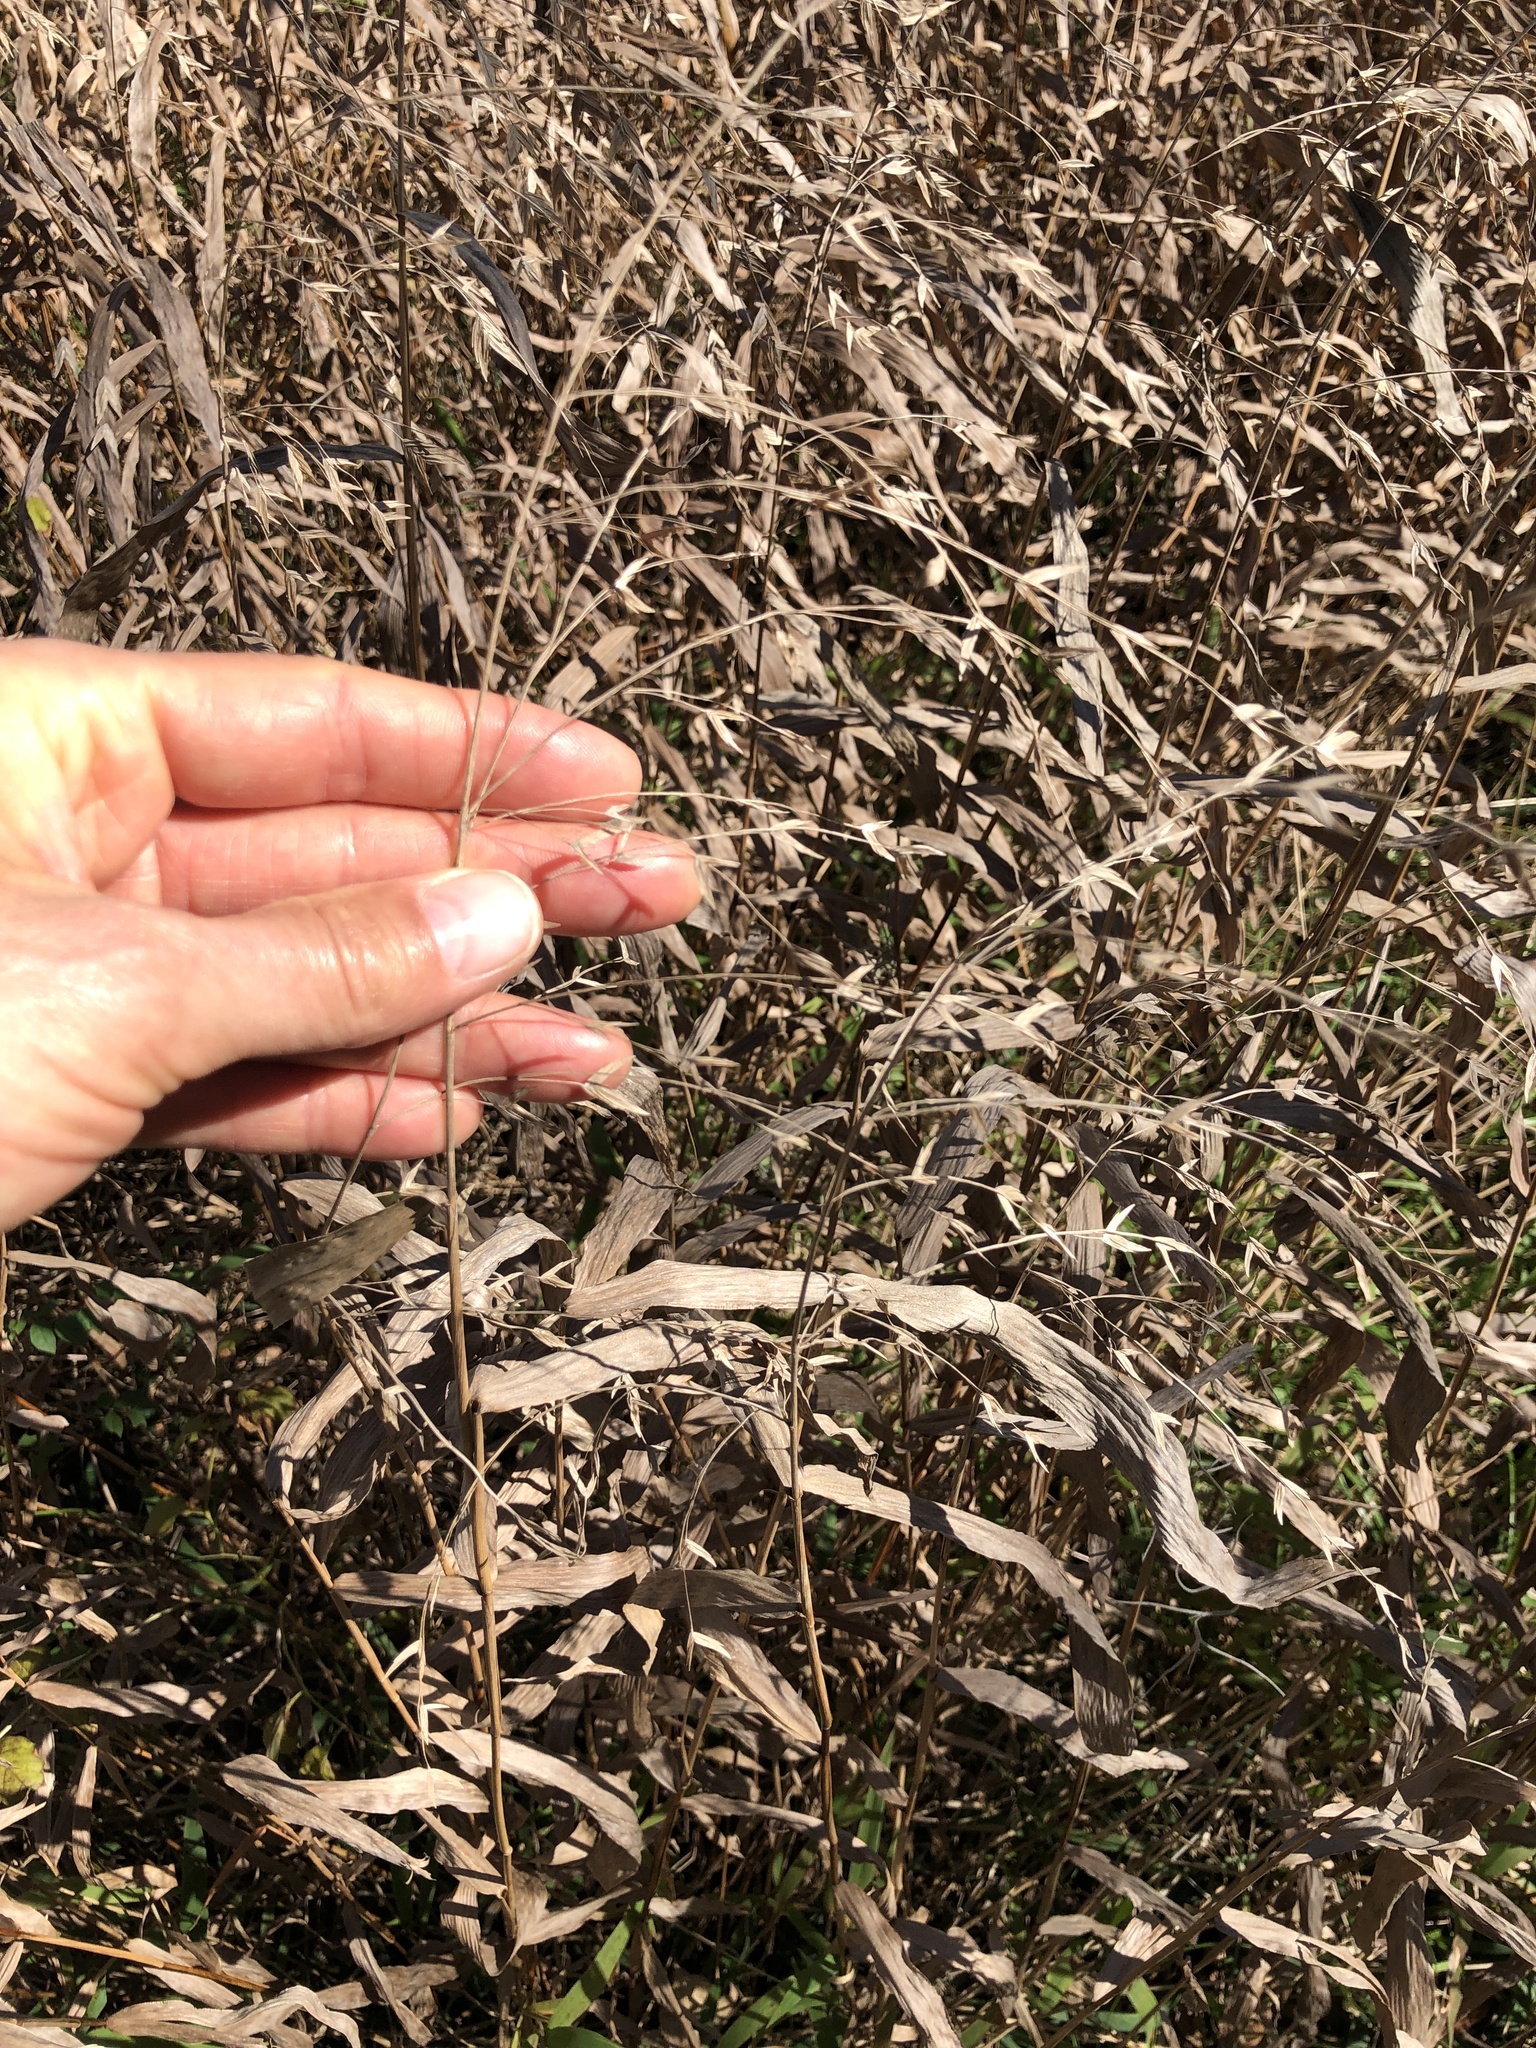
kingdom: Plantae
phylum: Tracheophyta
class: Liliopsida
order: Poales
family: Poaceae
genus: Chasmanthium
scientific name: Chasmanthium latifolium
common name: Broad-leaved chasmanthium
